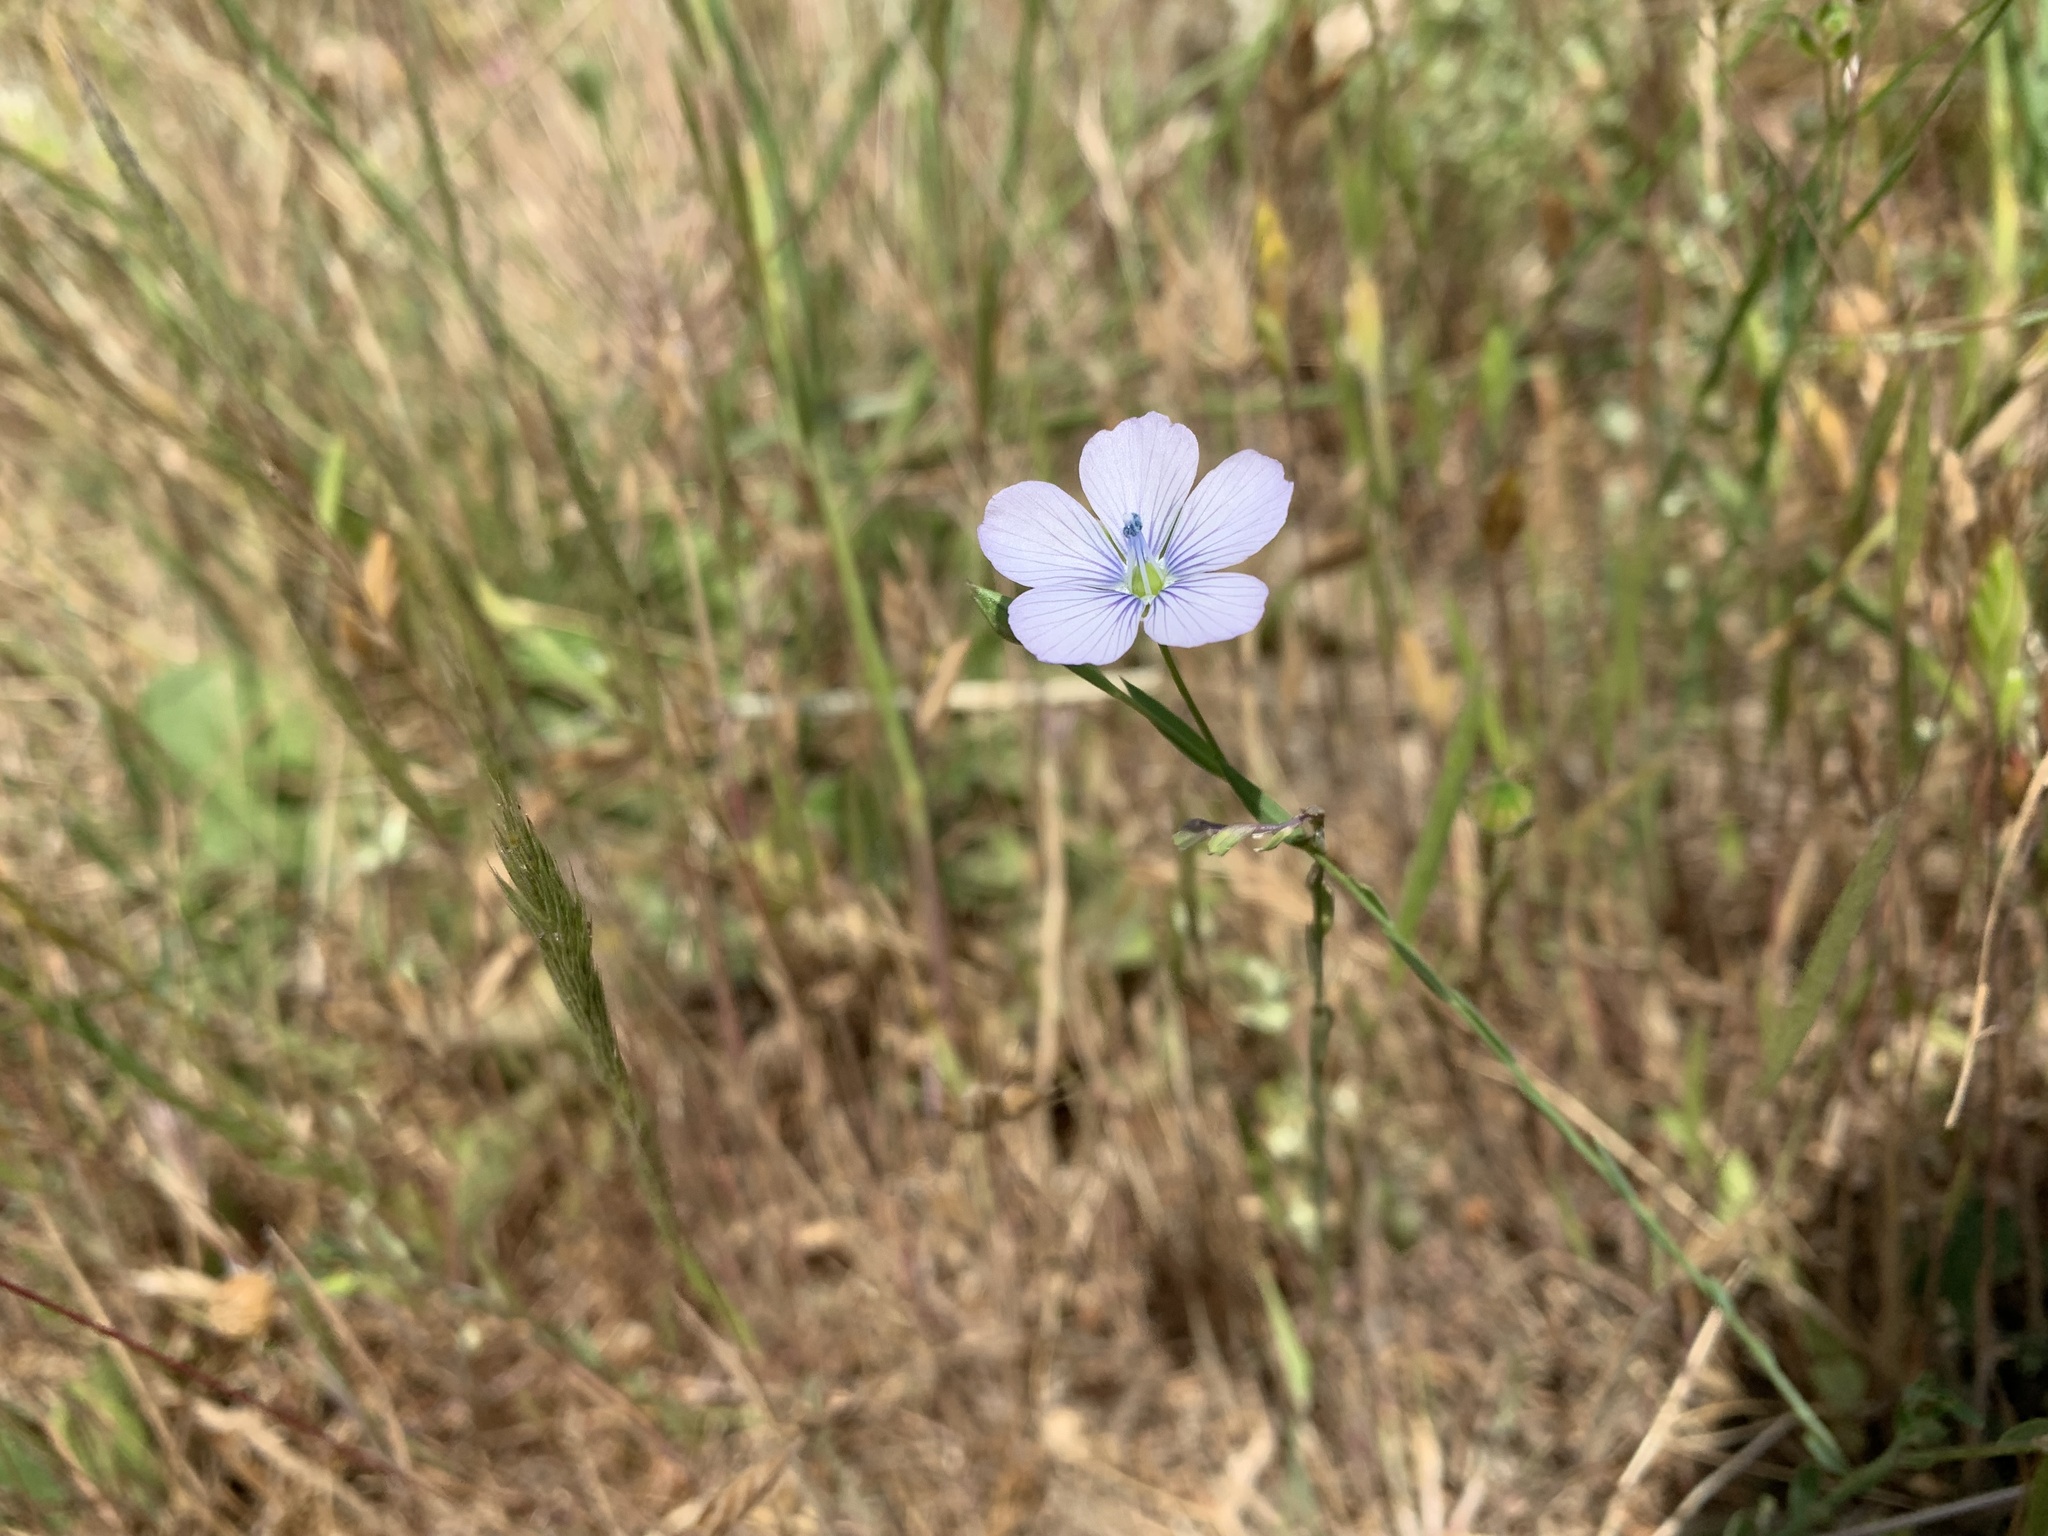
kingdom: Plantae
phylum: Tracheophyta
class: Magnoliopsida
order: Malpighiales
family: Linaceae
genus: Linum
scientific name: Linum bienne
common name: Pale flax
